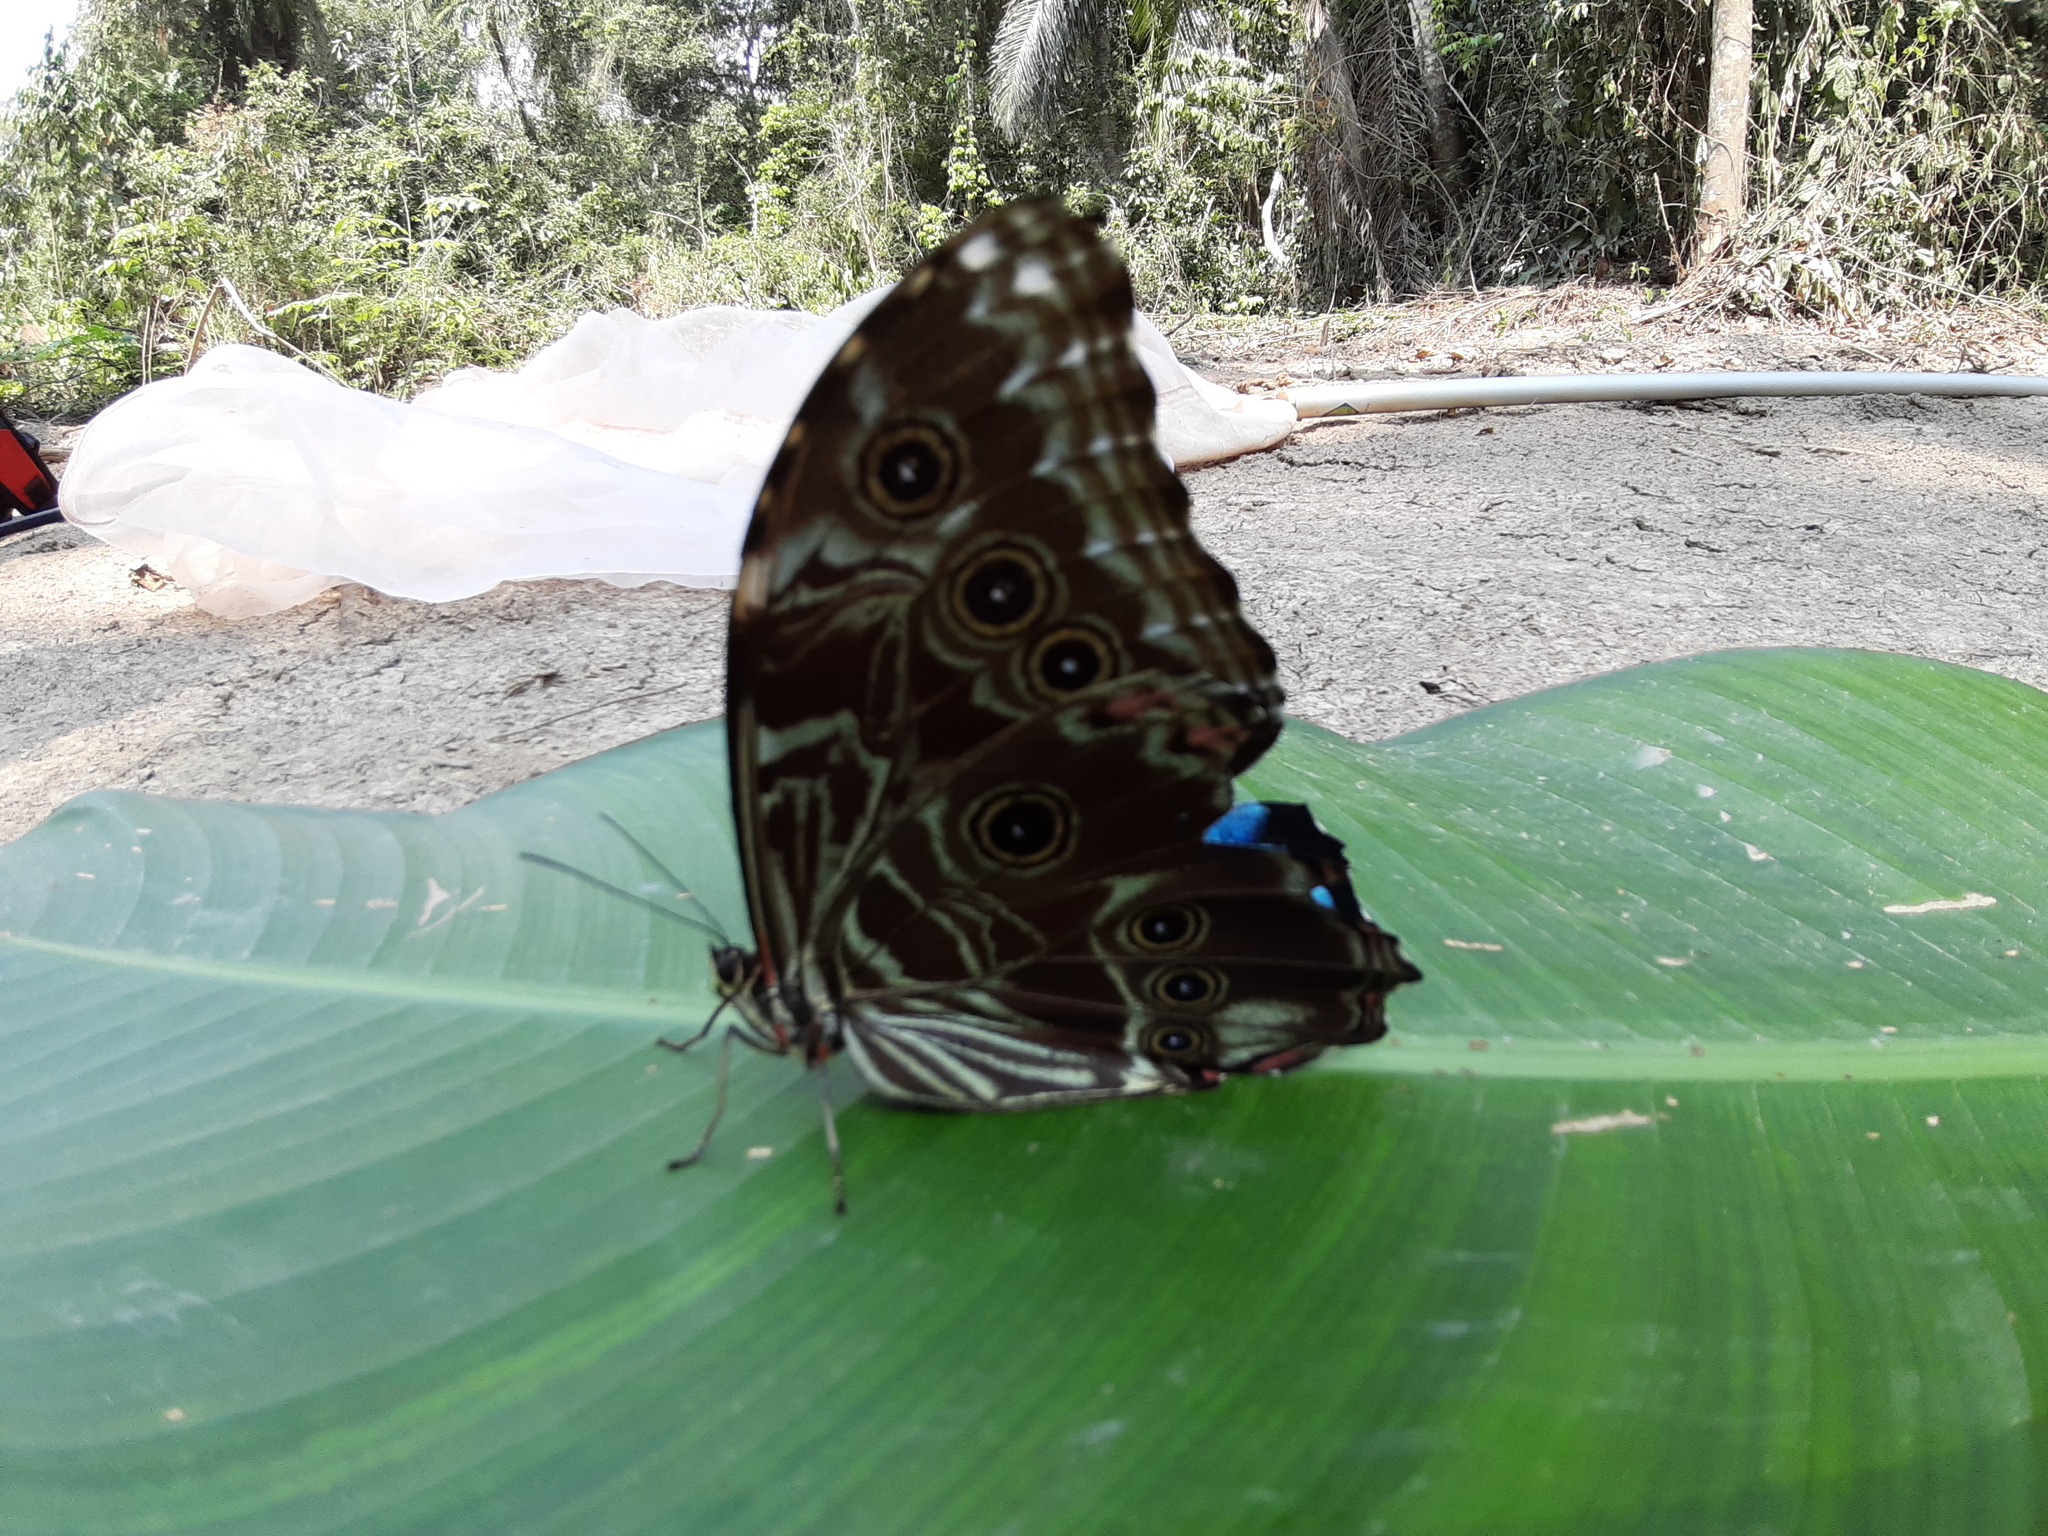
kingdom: Animalia
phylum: Arthropoda
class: Insecta
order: Lepidoptera
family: Nymphalidae
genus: Morpho
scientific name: Morpho deidamia
